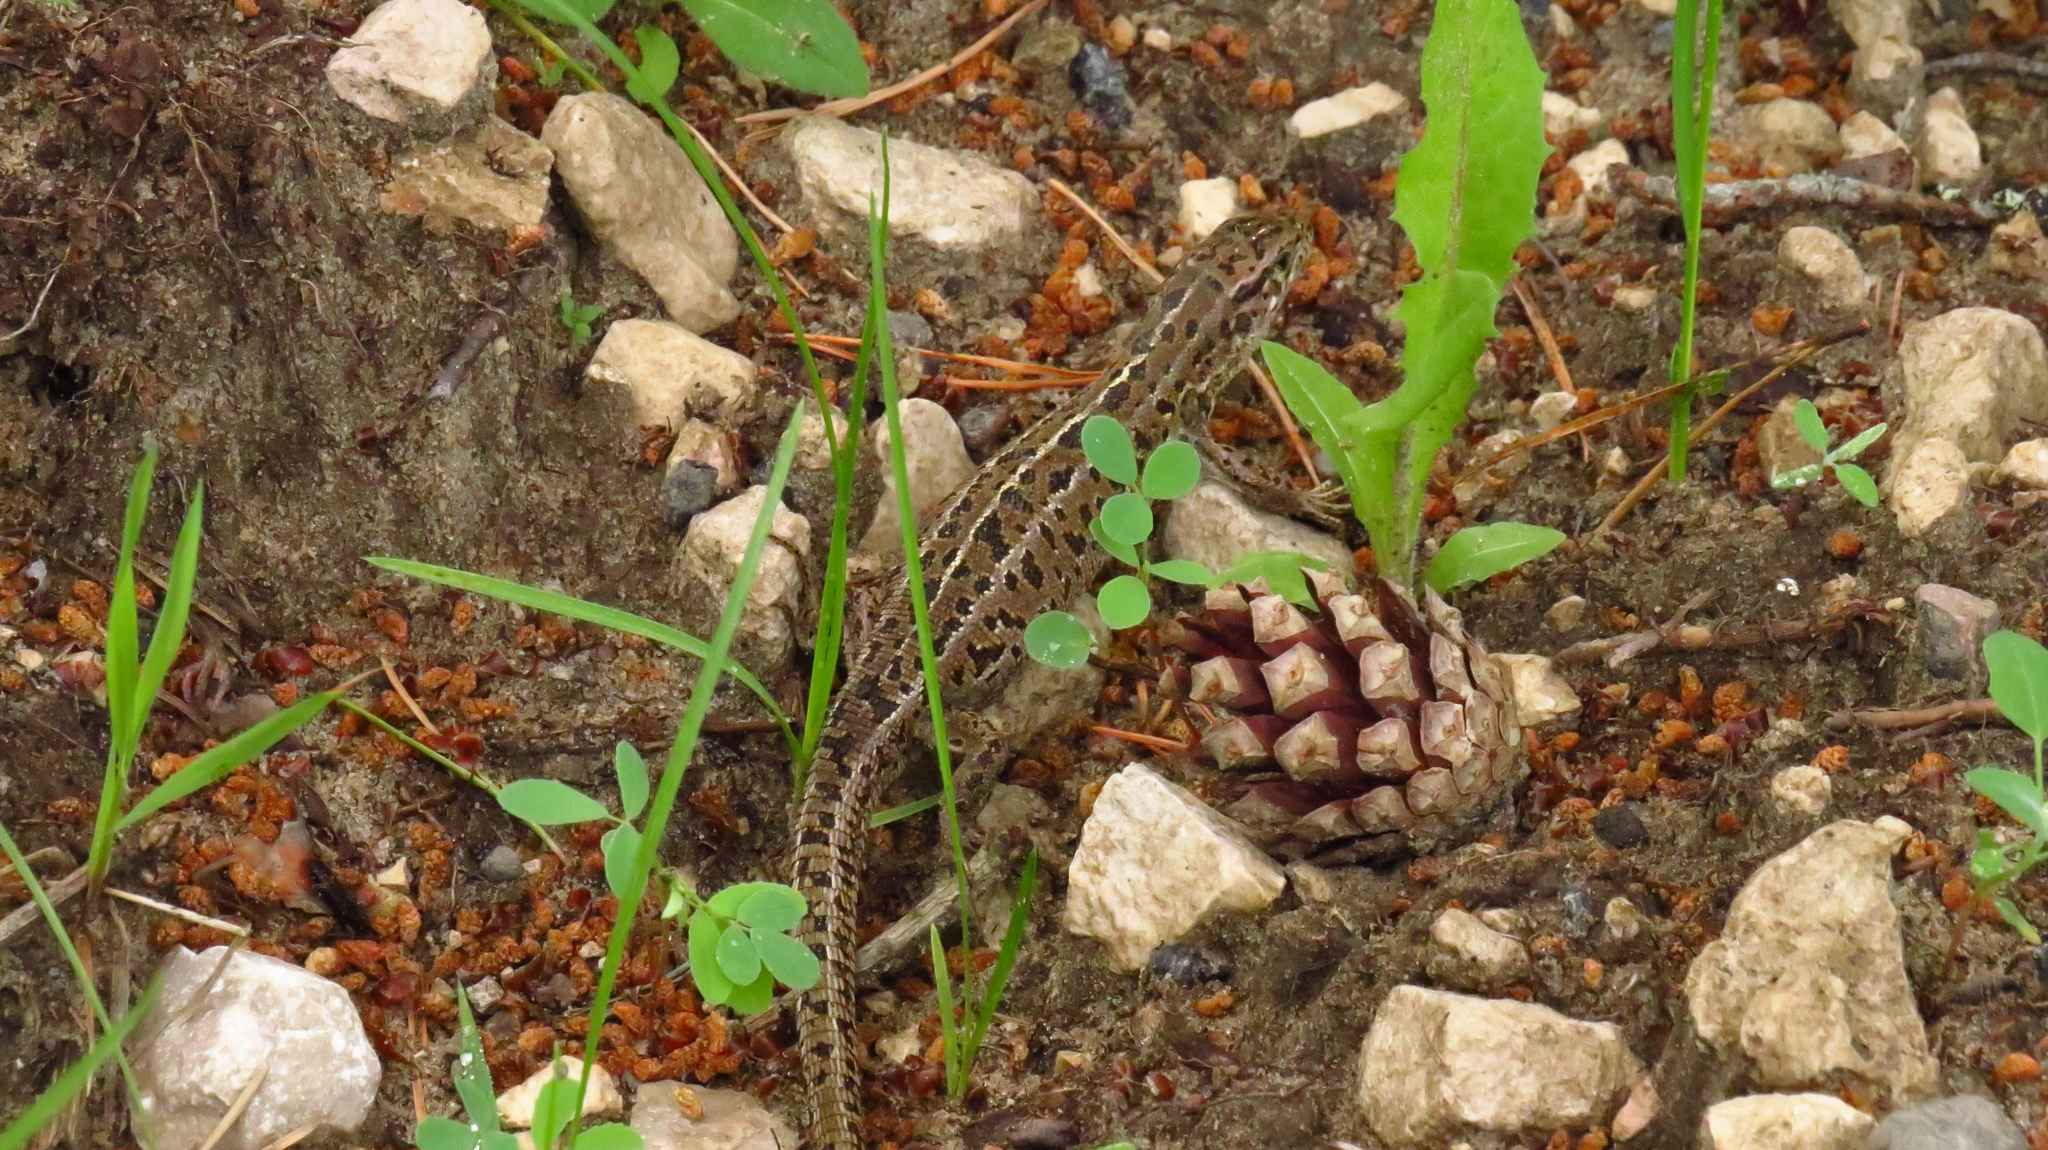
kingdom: Animalia
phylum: Chordata
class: Squamata
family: Lacertidae
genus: Lacerta
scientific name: Lacerta agilis
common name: Sand lizard
